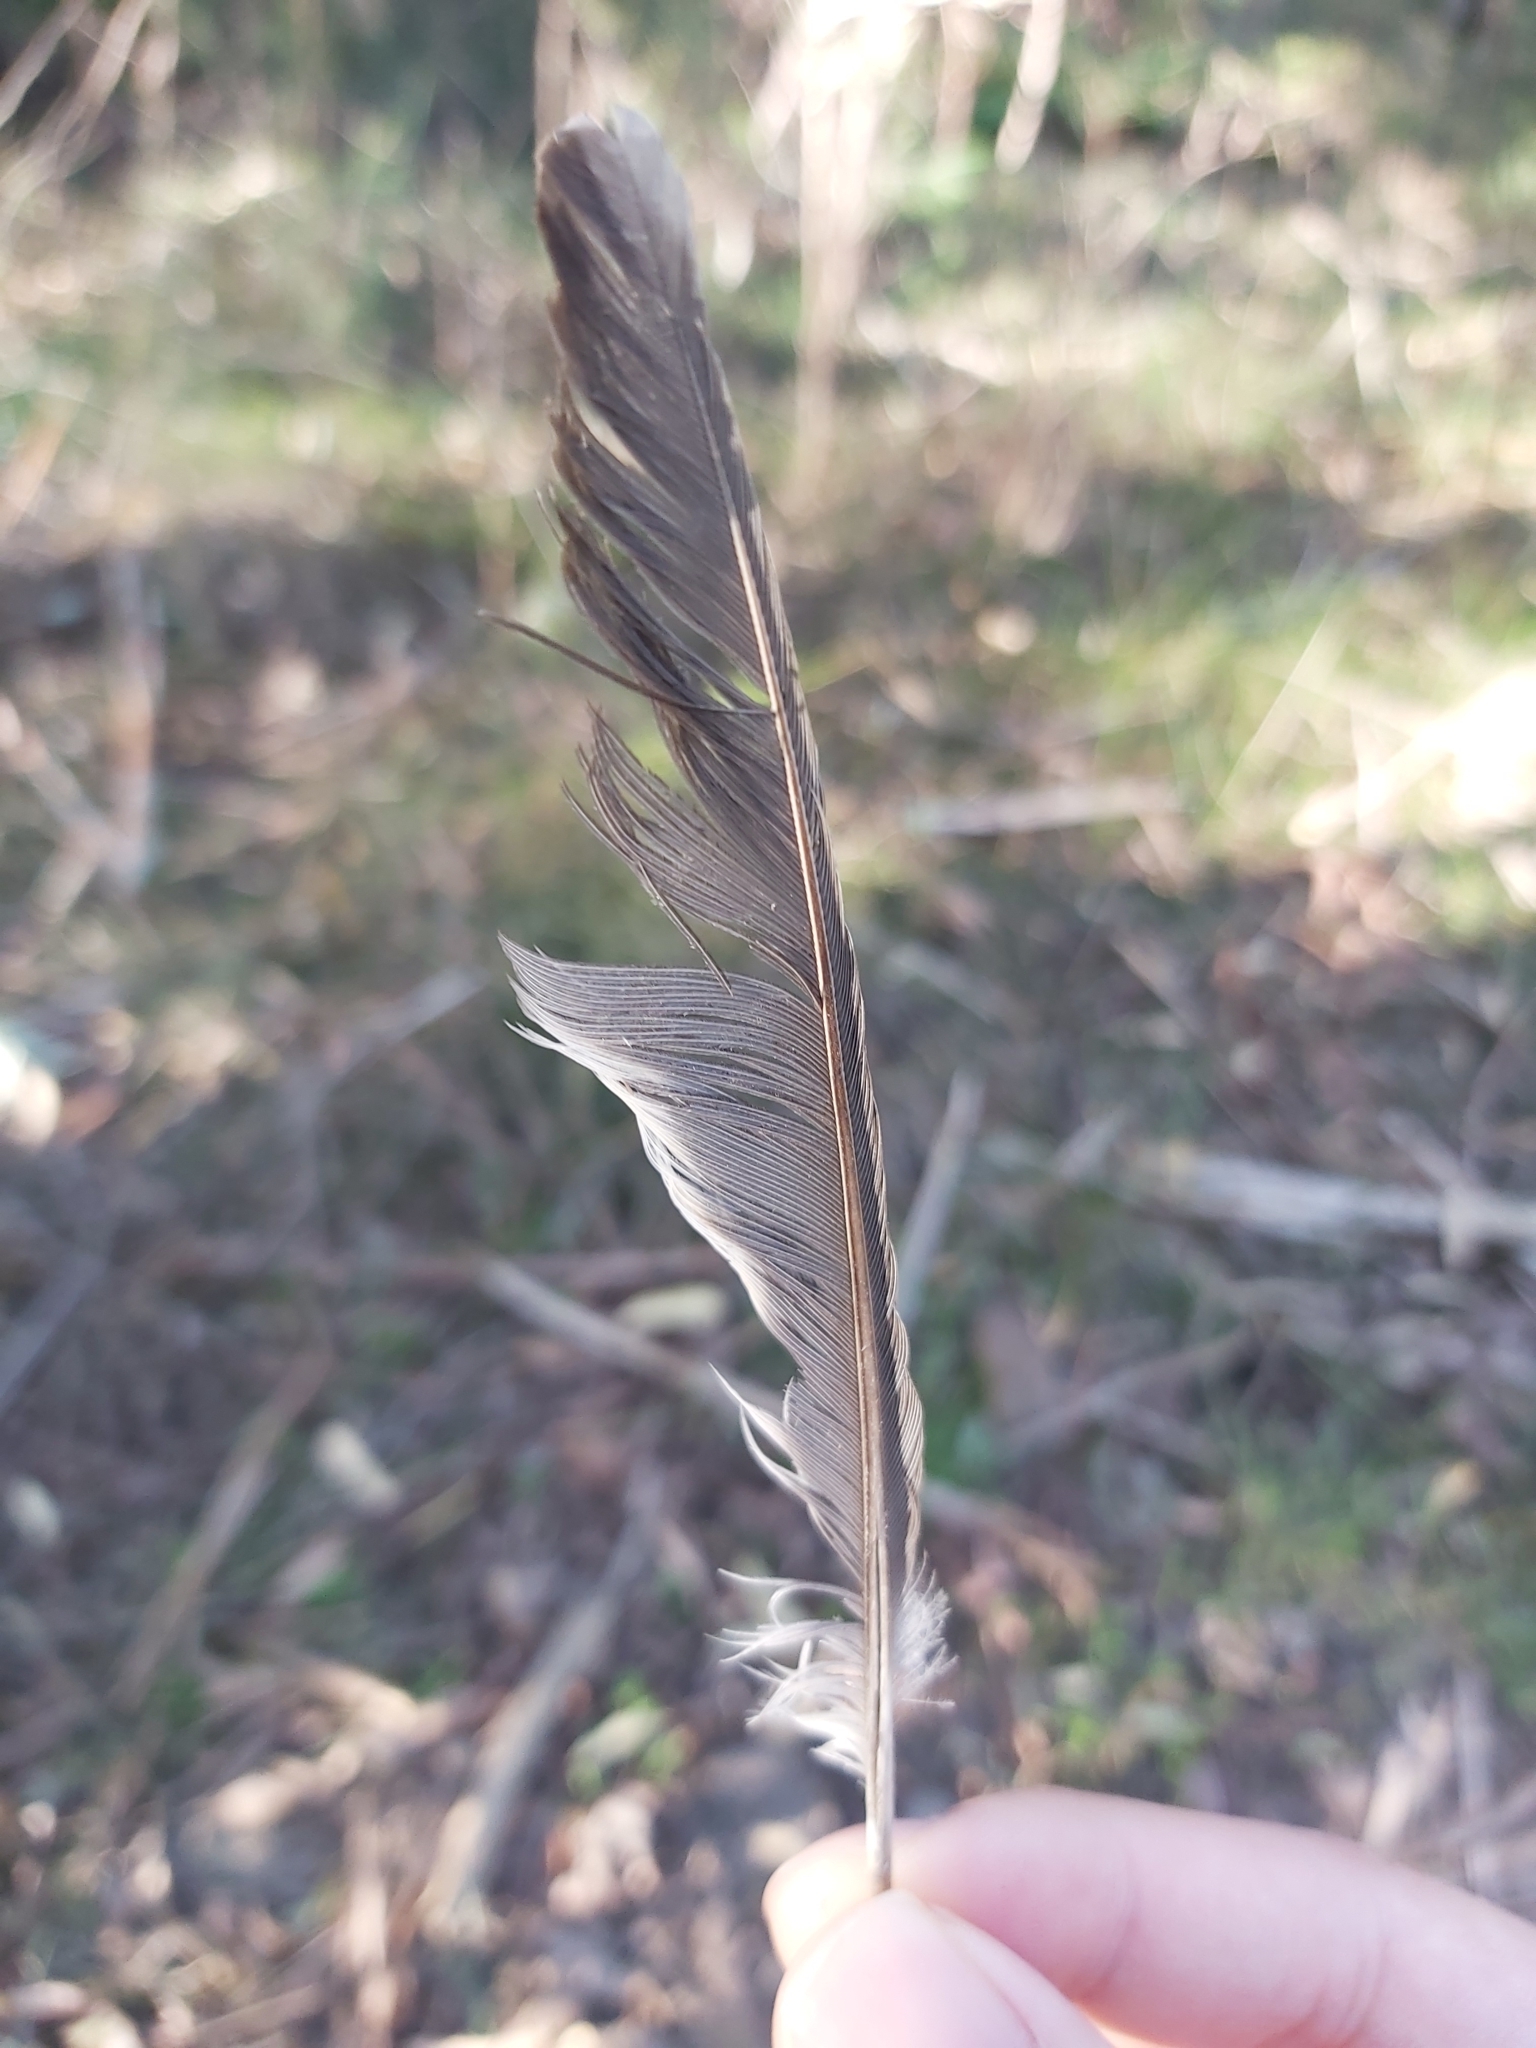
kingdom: Animalia
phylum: Chordata
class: Aves
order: Passeriformes
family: Meliphagidae
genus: Manorina
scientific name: Manorina melanocephala
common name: Noisy miner
